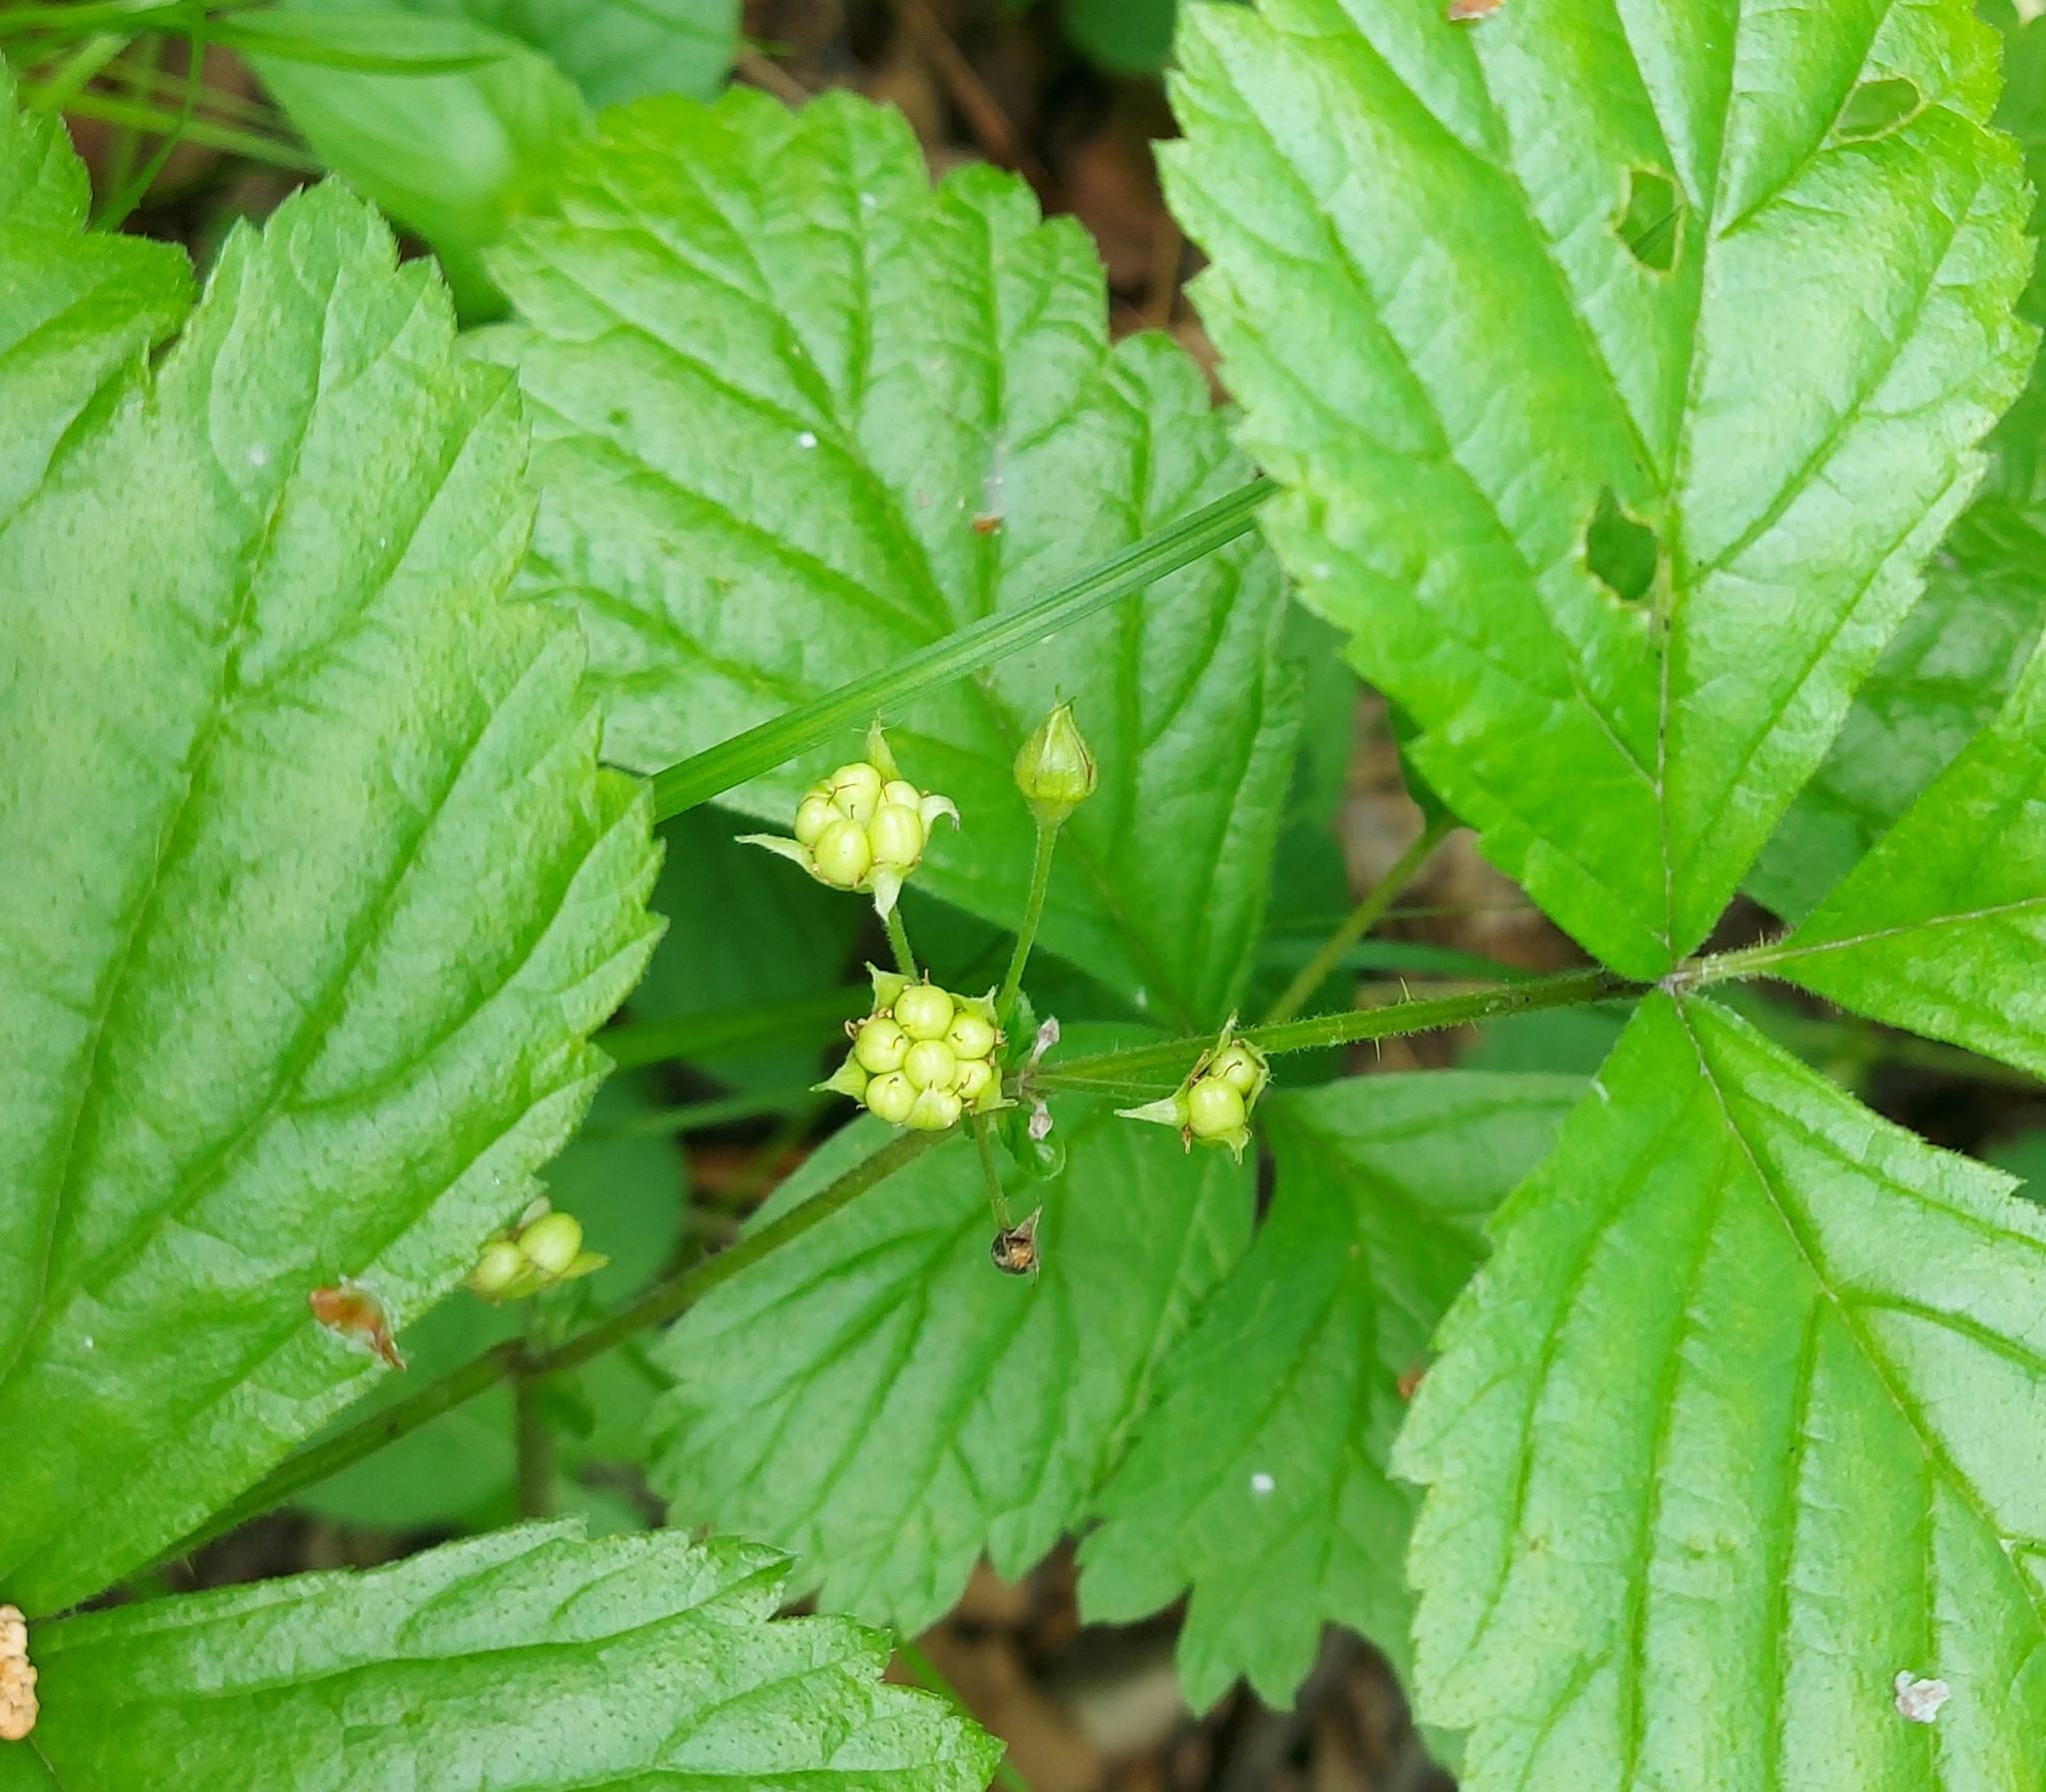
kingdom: Plantae
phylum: Tracheophyta
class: Magnoliopsida
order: Rosales
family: Rosaceae
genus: Rubus
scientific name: Rubus saxatilis
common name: Stone bramble
